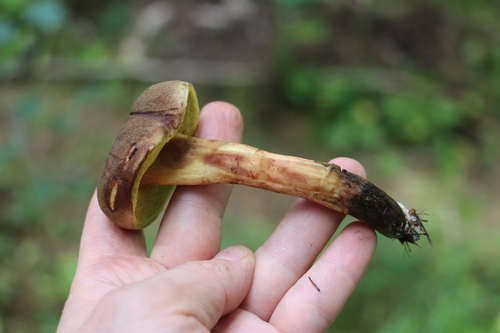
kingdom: Fungi
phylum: Basidiomycota
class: Agaricomycetes
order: Boletales
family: Boletaceae
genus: Xerocomus
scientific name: Xerocomus subtomentosus
